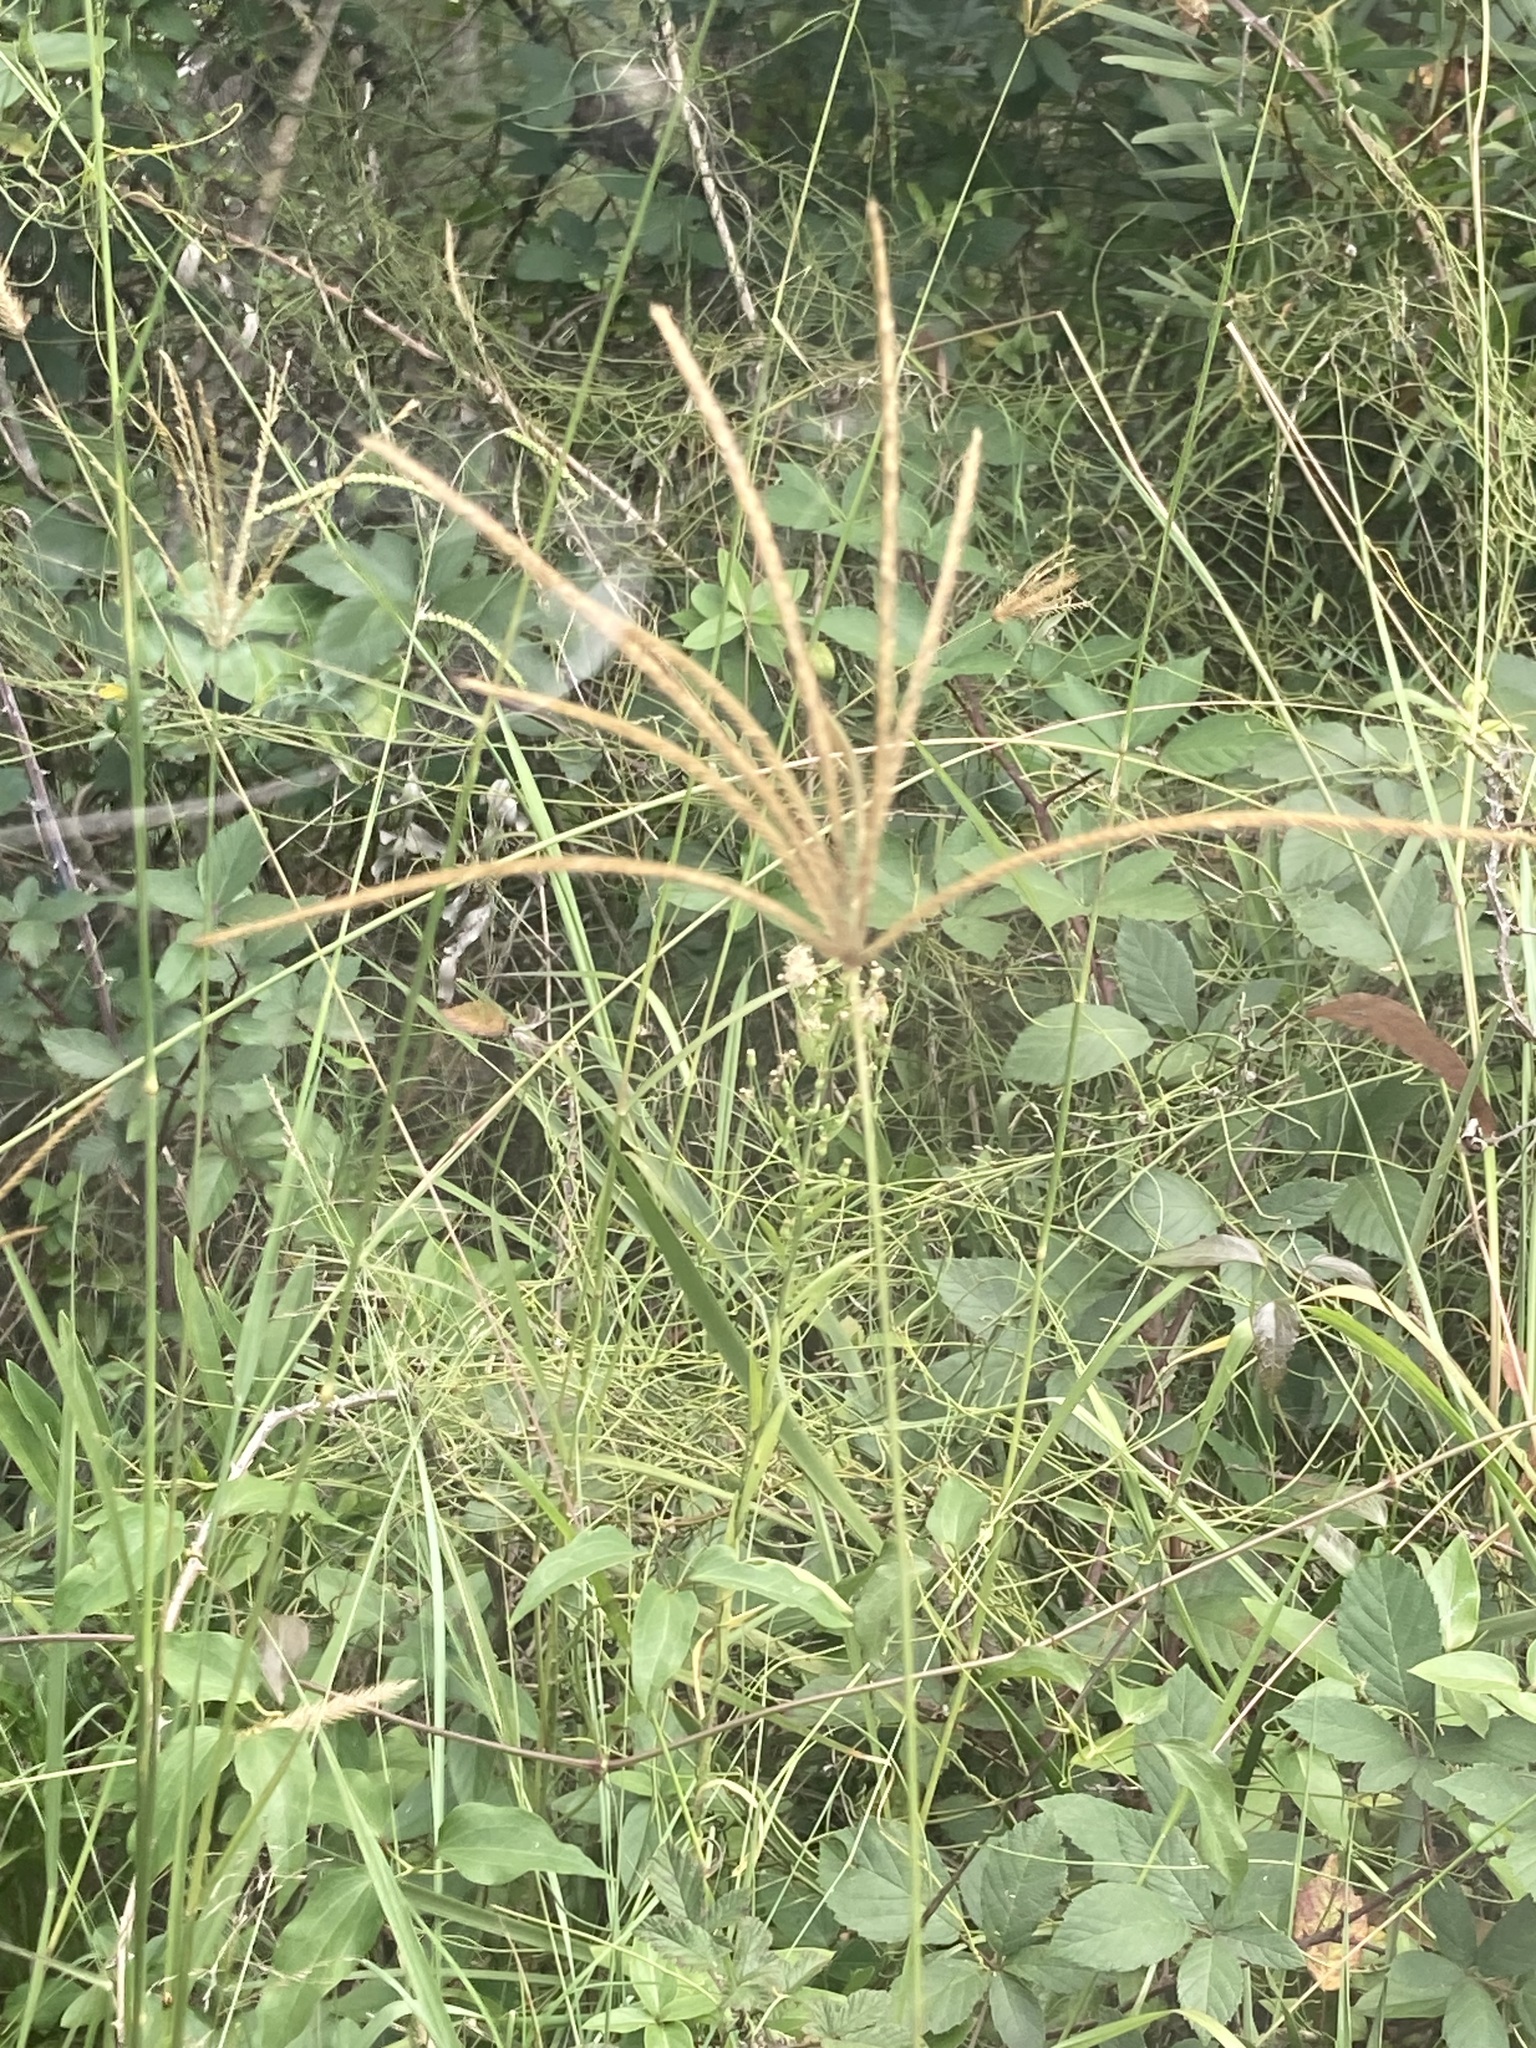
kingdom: Plantae
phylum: Tracheophyta
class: Liliopsida
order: Poales
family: Poaceae
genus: Chloris
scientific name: Chloris gayana
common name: Rhodes grass
